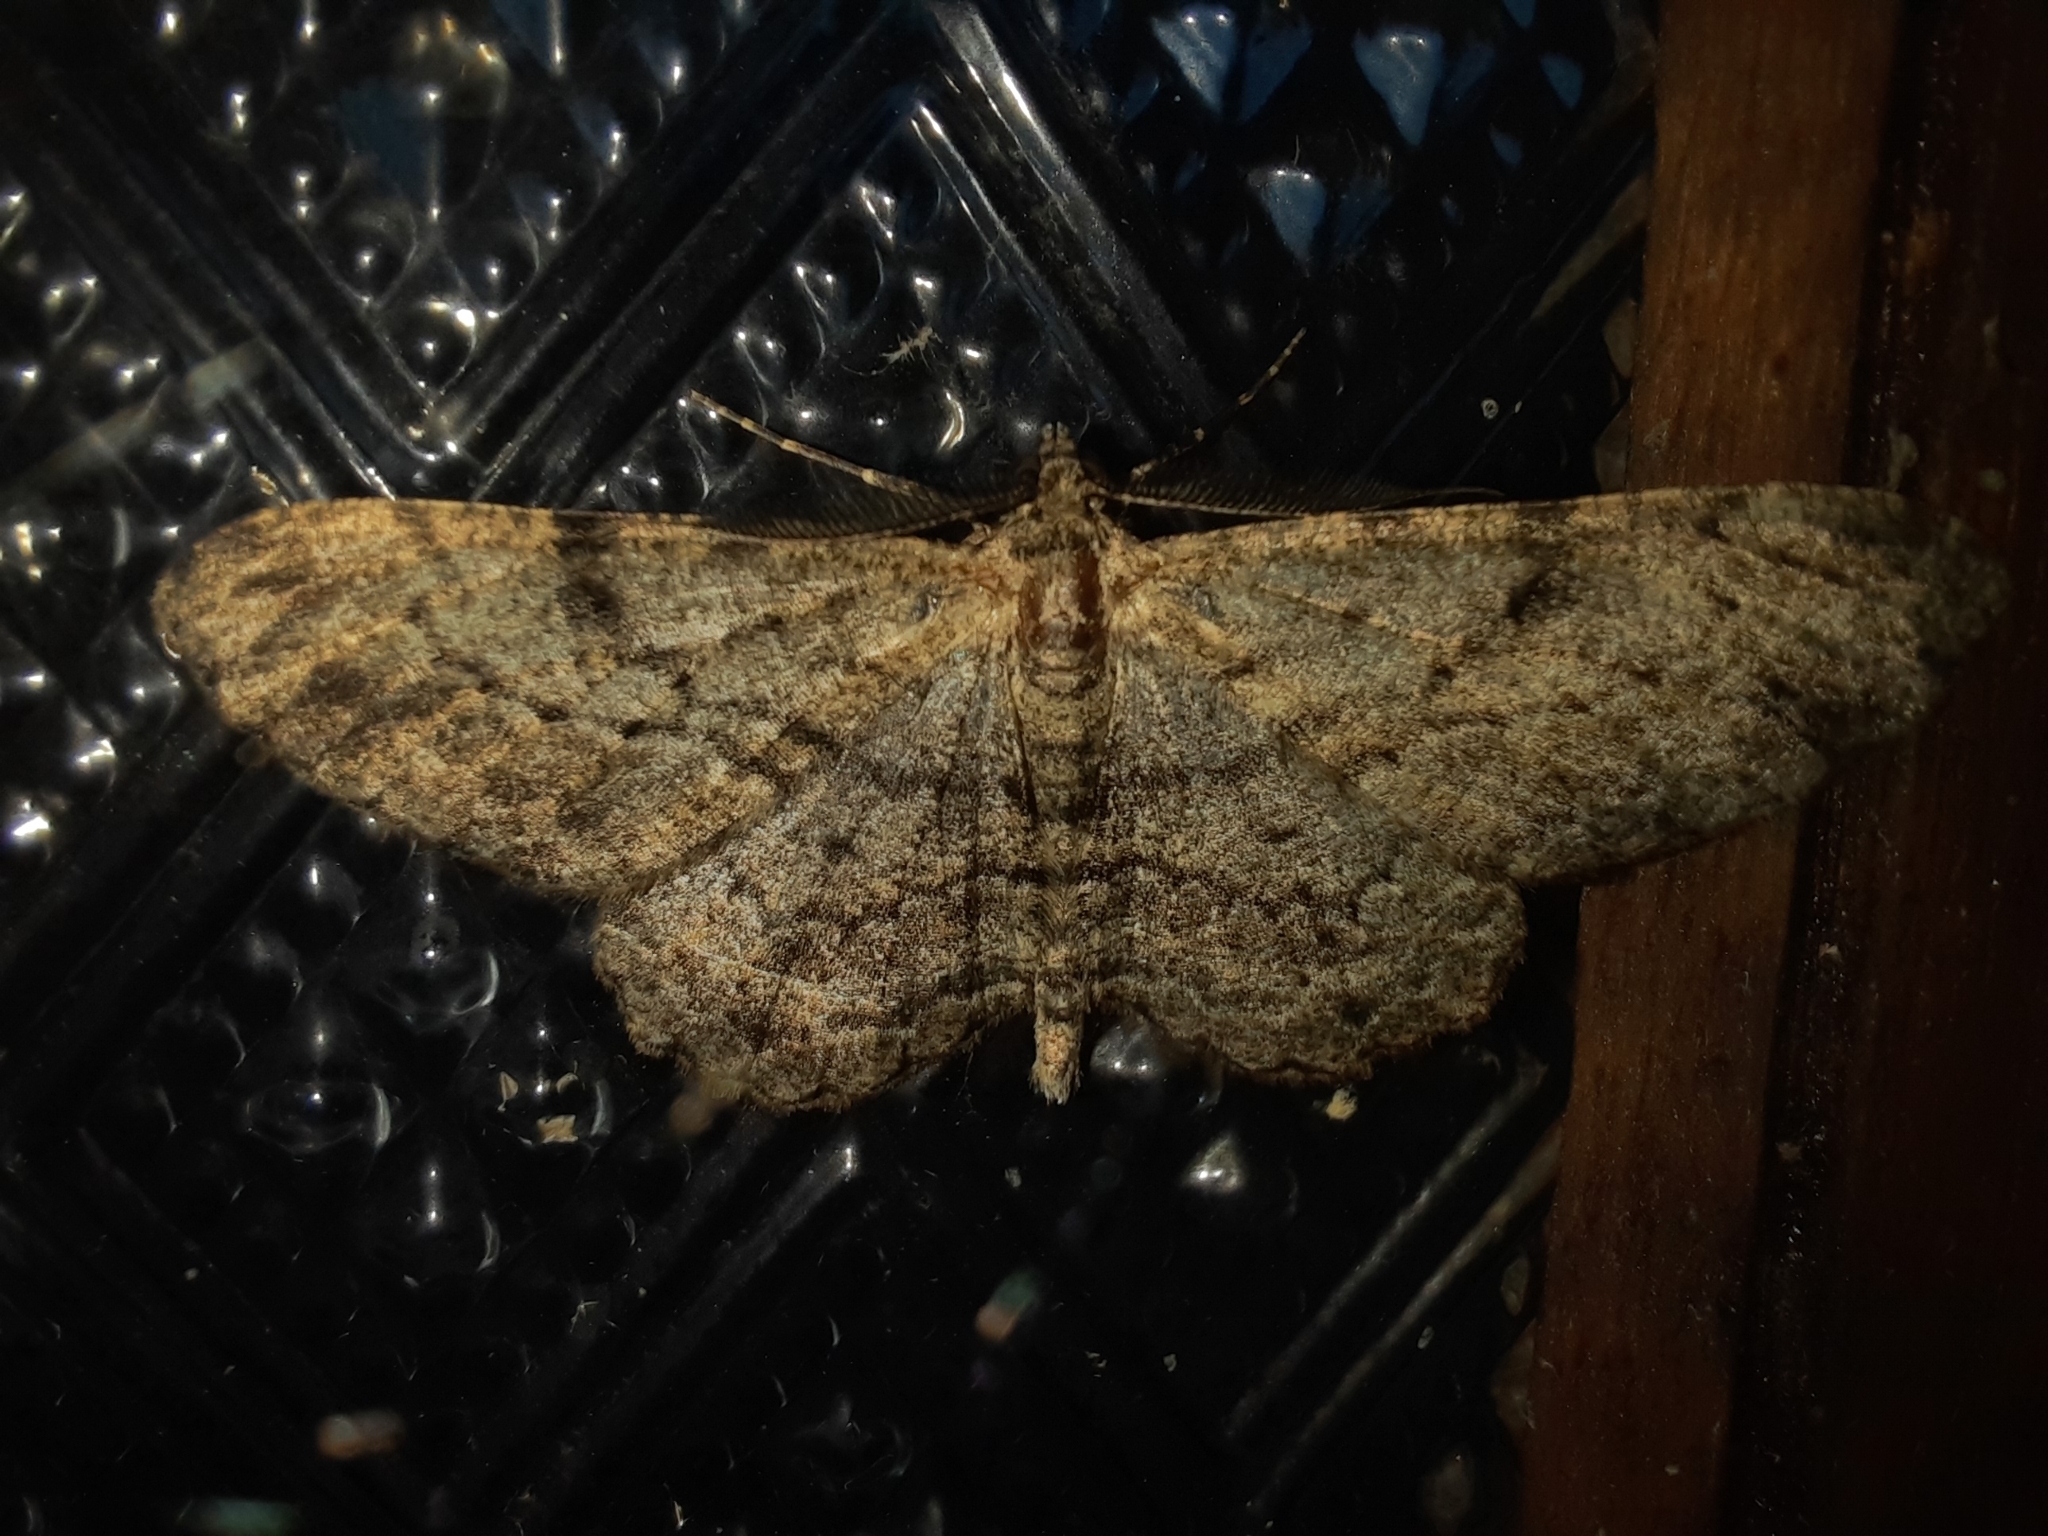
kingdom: Animalia
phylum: Arthropoda
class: Insecta
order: Lepidoptera
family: Geometridae
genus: Peribatodes
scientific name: Peribatodes rhomboidaria
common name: Willow beauty
